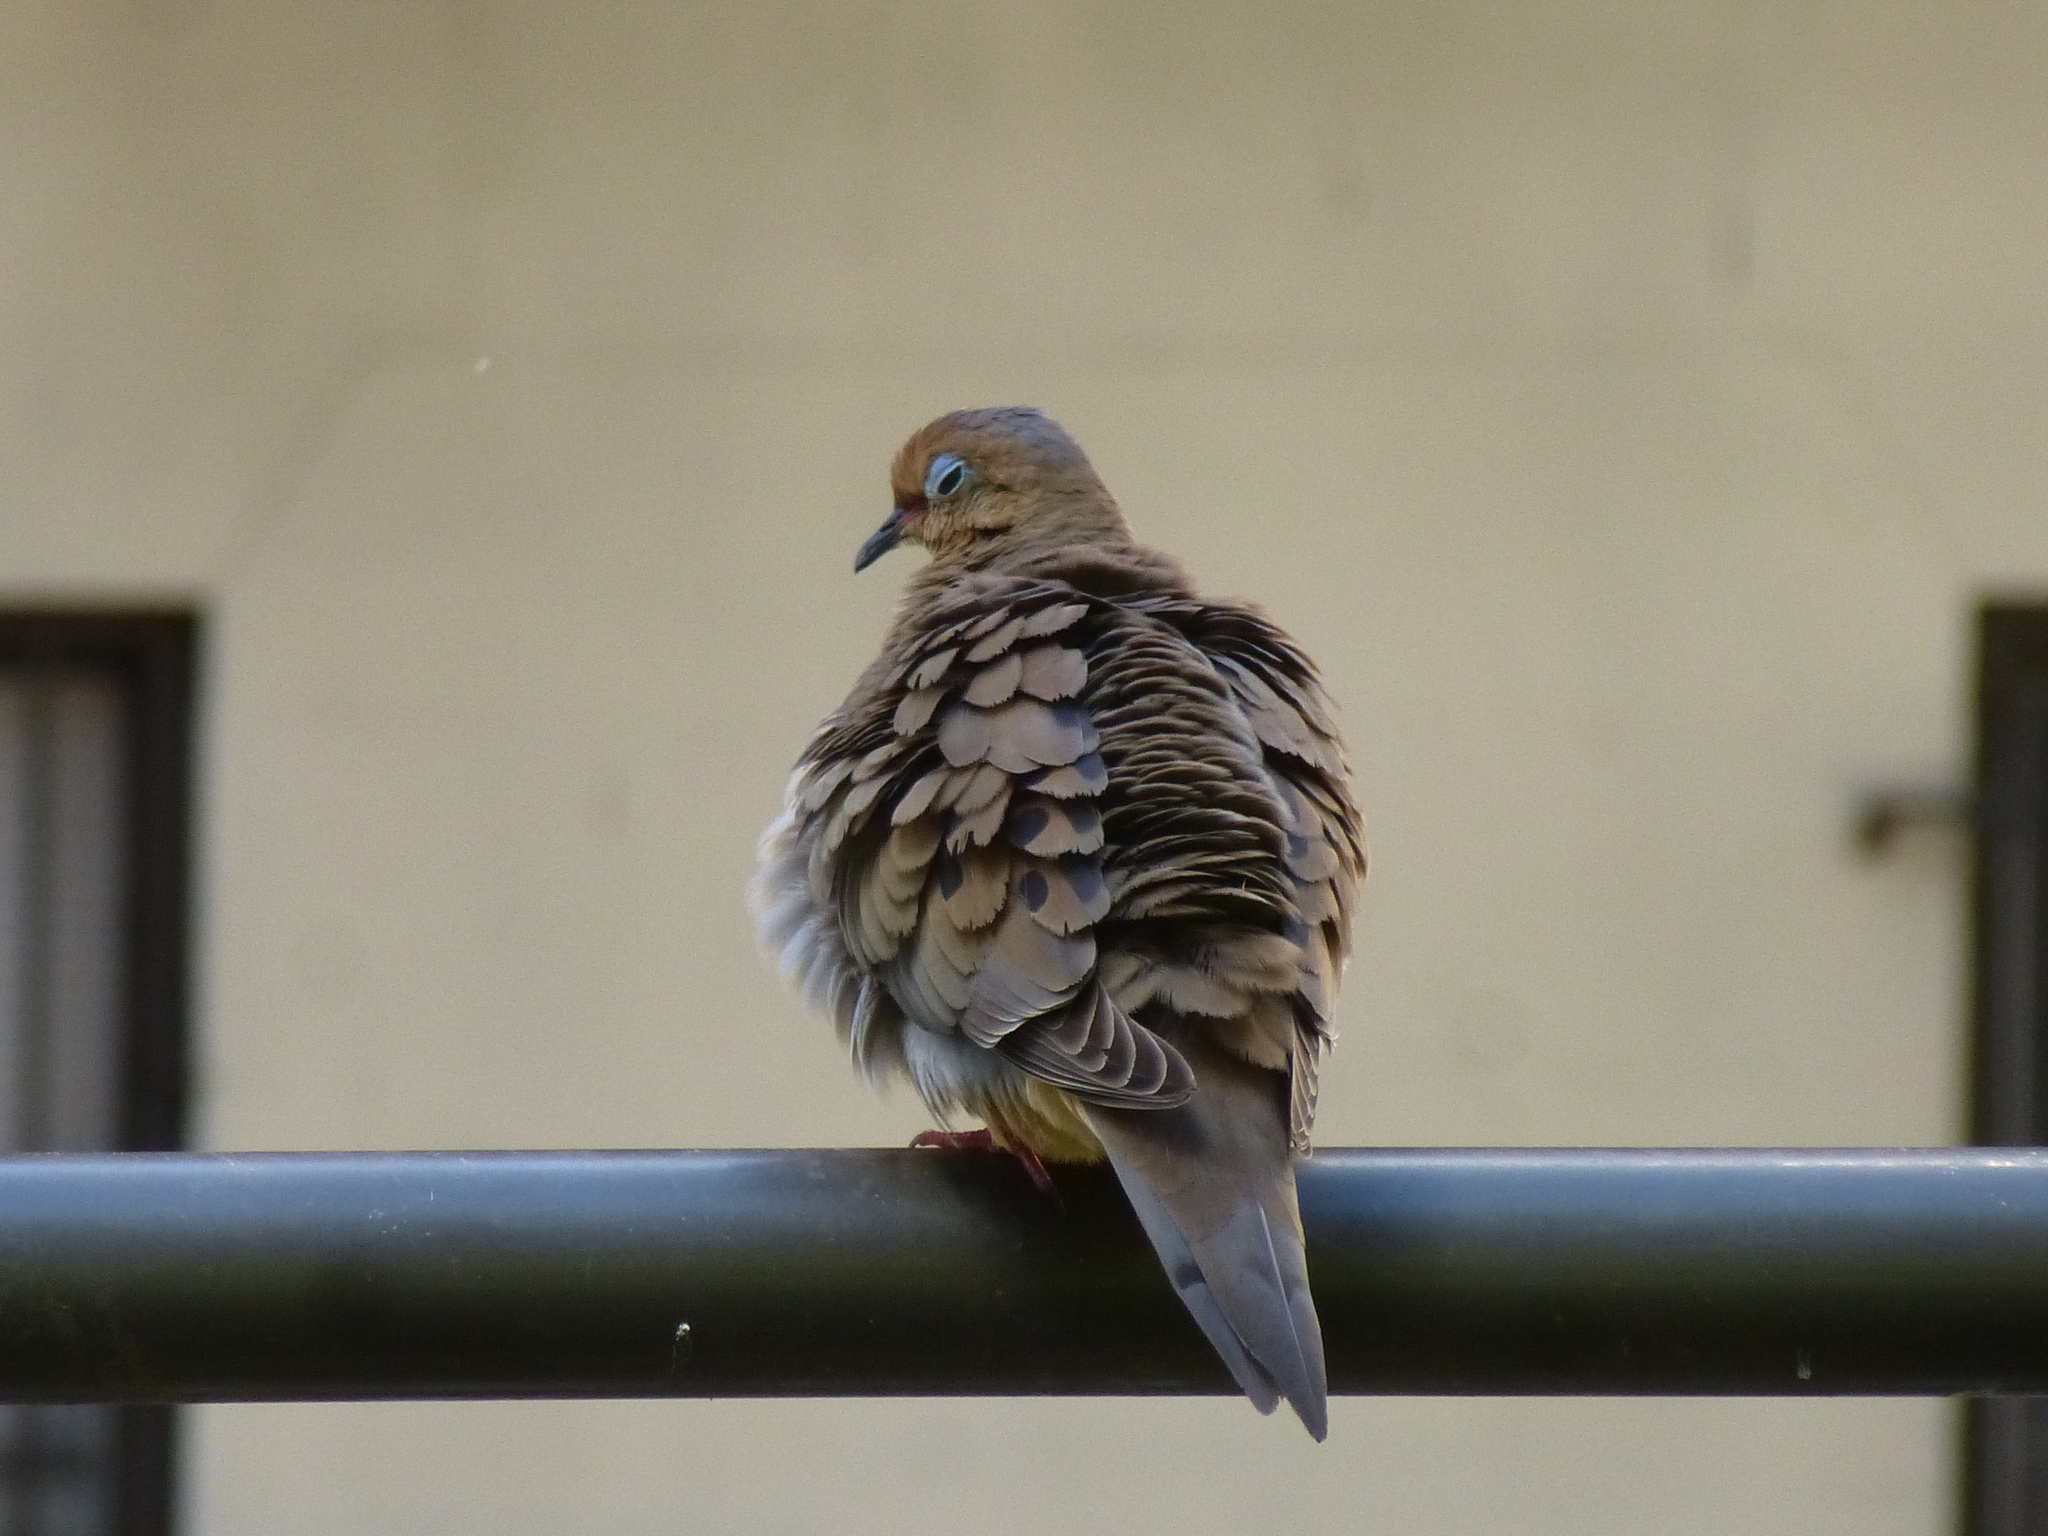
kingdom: Animalia
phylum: Chordata
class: Aves
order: Columbiformes
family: Columbidae
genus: Zenaida
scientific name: Zenaida macroura
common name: Mourning dove
